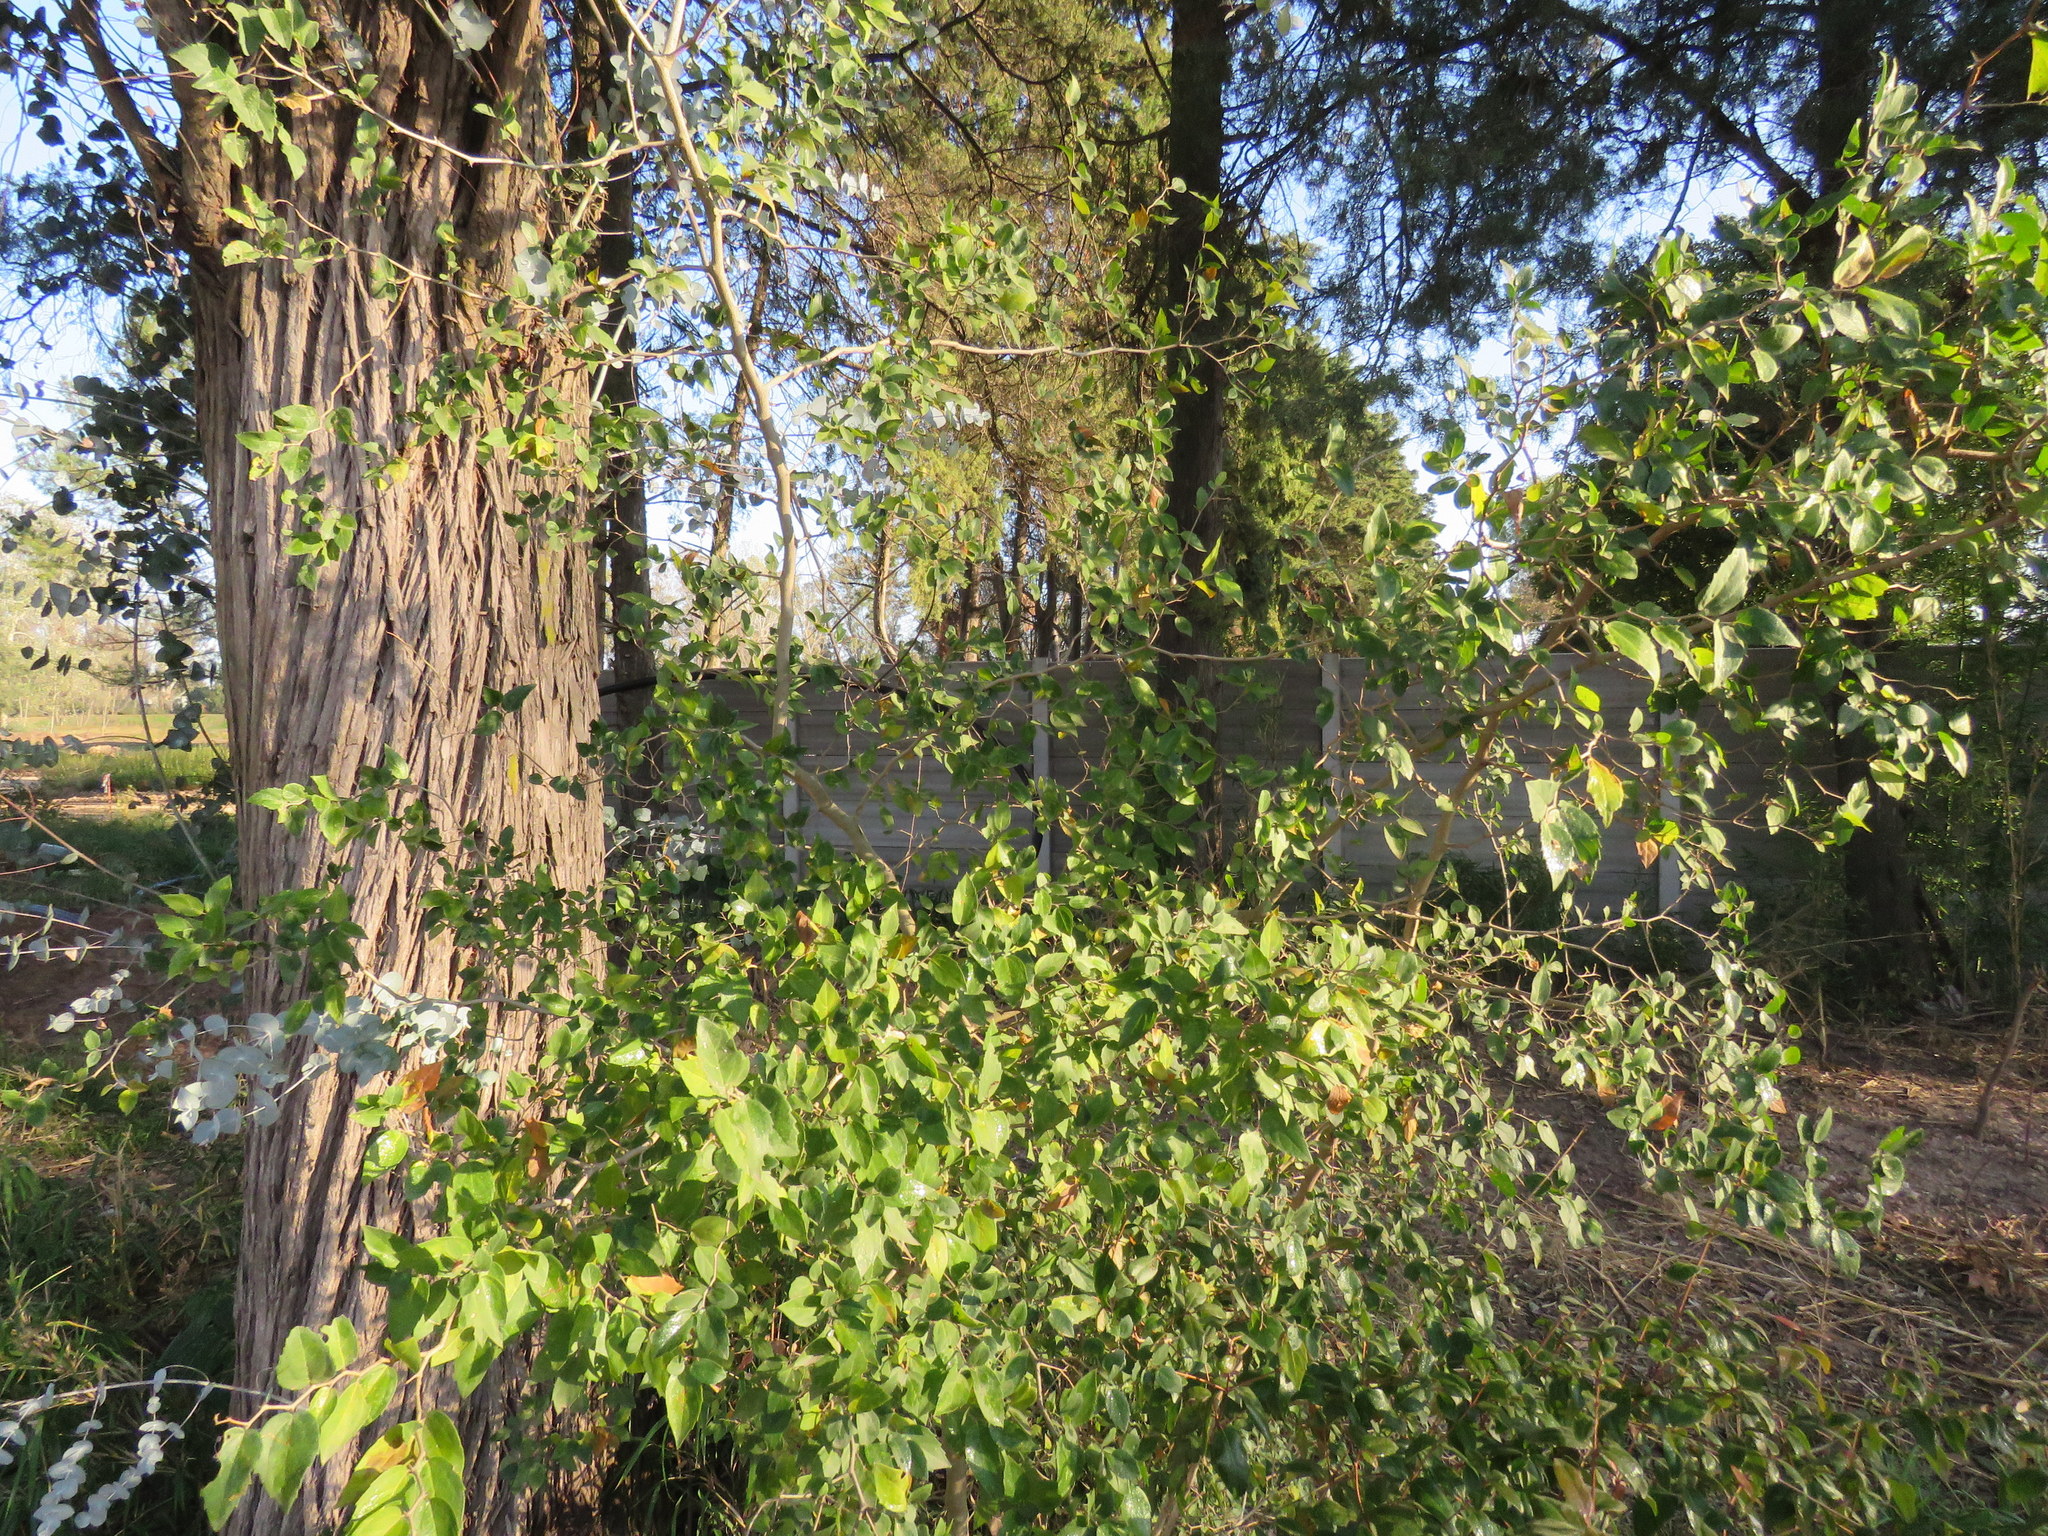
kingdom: Plantae
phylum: Tracheophyta
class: Magnoliopsida
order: Rosales
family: Cannabaceae
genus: Celtis
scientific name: Celtis tala
